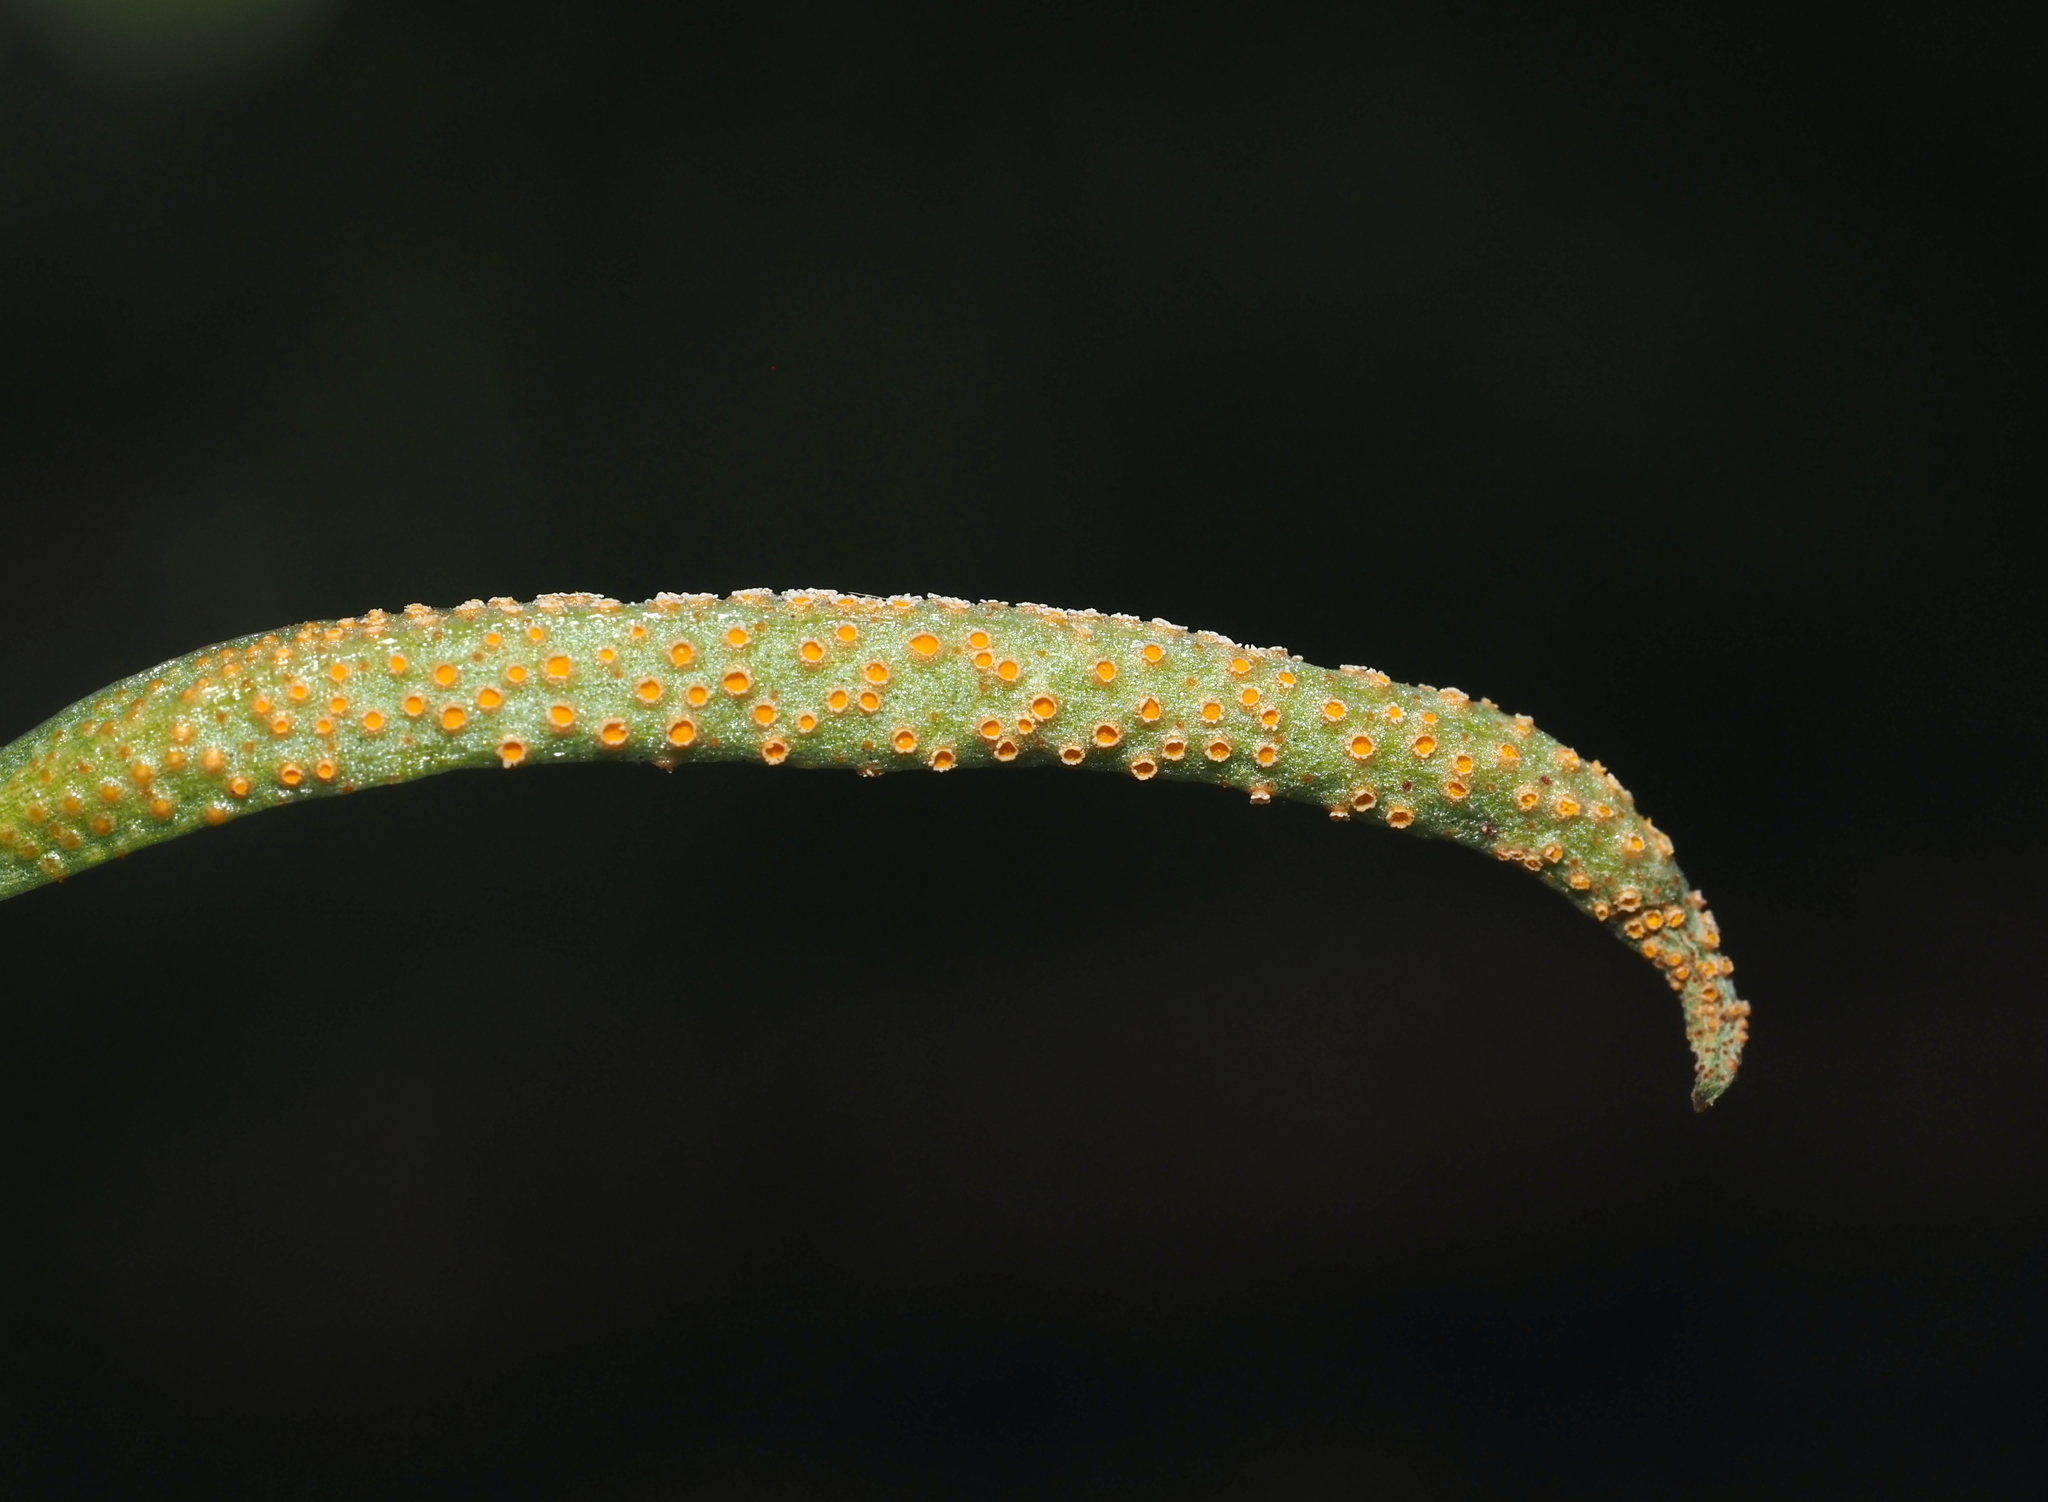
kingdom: Fungi
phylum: Basidiomycota
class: Pucciniomycetes
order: Pucciniales
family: Pucciniaceae
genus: Puccinia
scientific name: Puccinia mariae-wilsoniae
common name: Spring beauty rust
